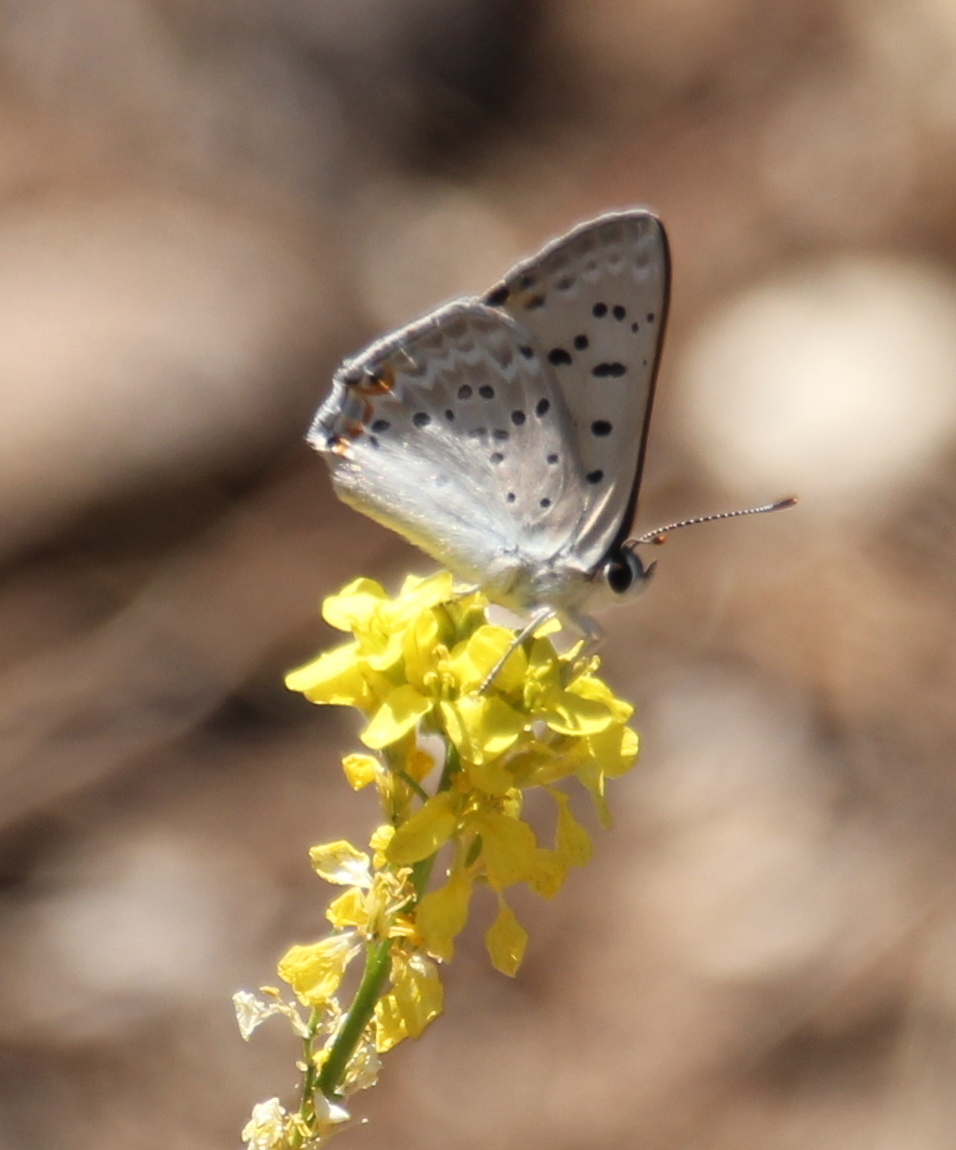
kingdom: Animalia
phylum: Arthropoda
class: Insecta
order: Lepidoptera
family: Lycaenidae
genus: Tharsalea
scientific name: Tharsalea xanthoides
